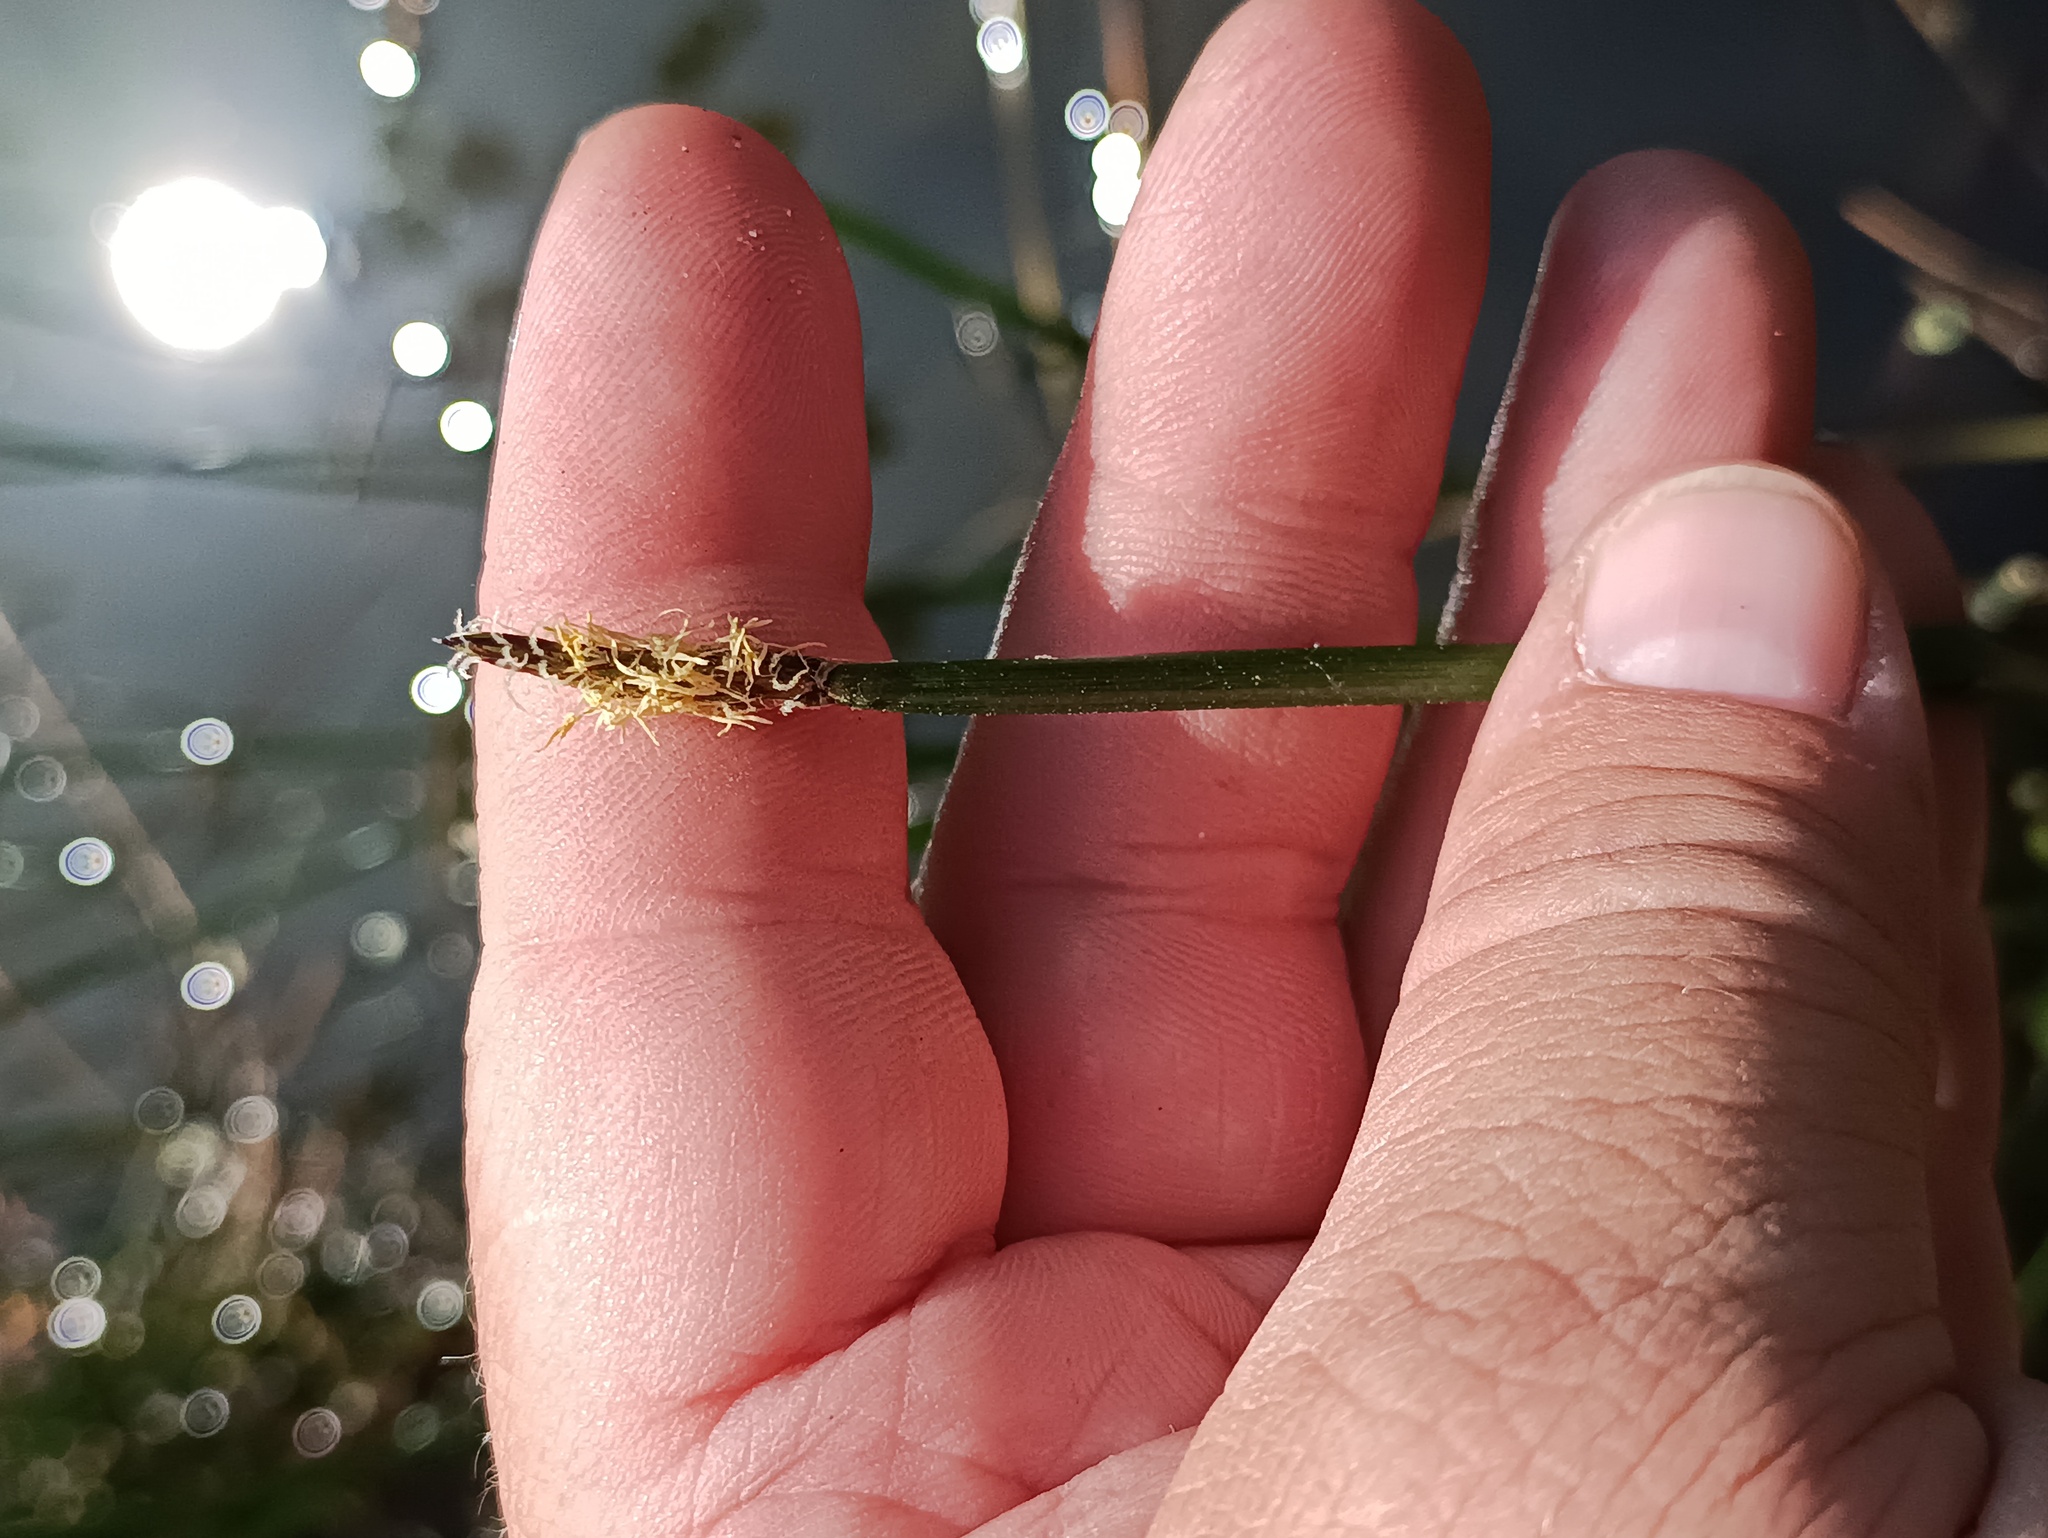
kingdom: Plantae
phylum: Tracheophyta
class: Liliopsida
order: Poales
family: Cyperaceae
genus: Eleocharis
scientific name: Eleocharis palustris
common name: Common spike-rush
